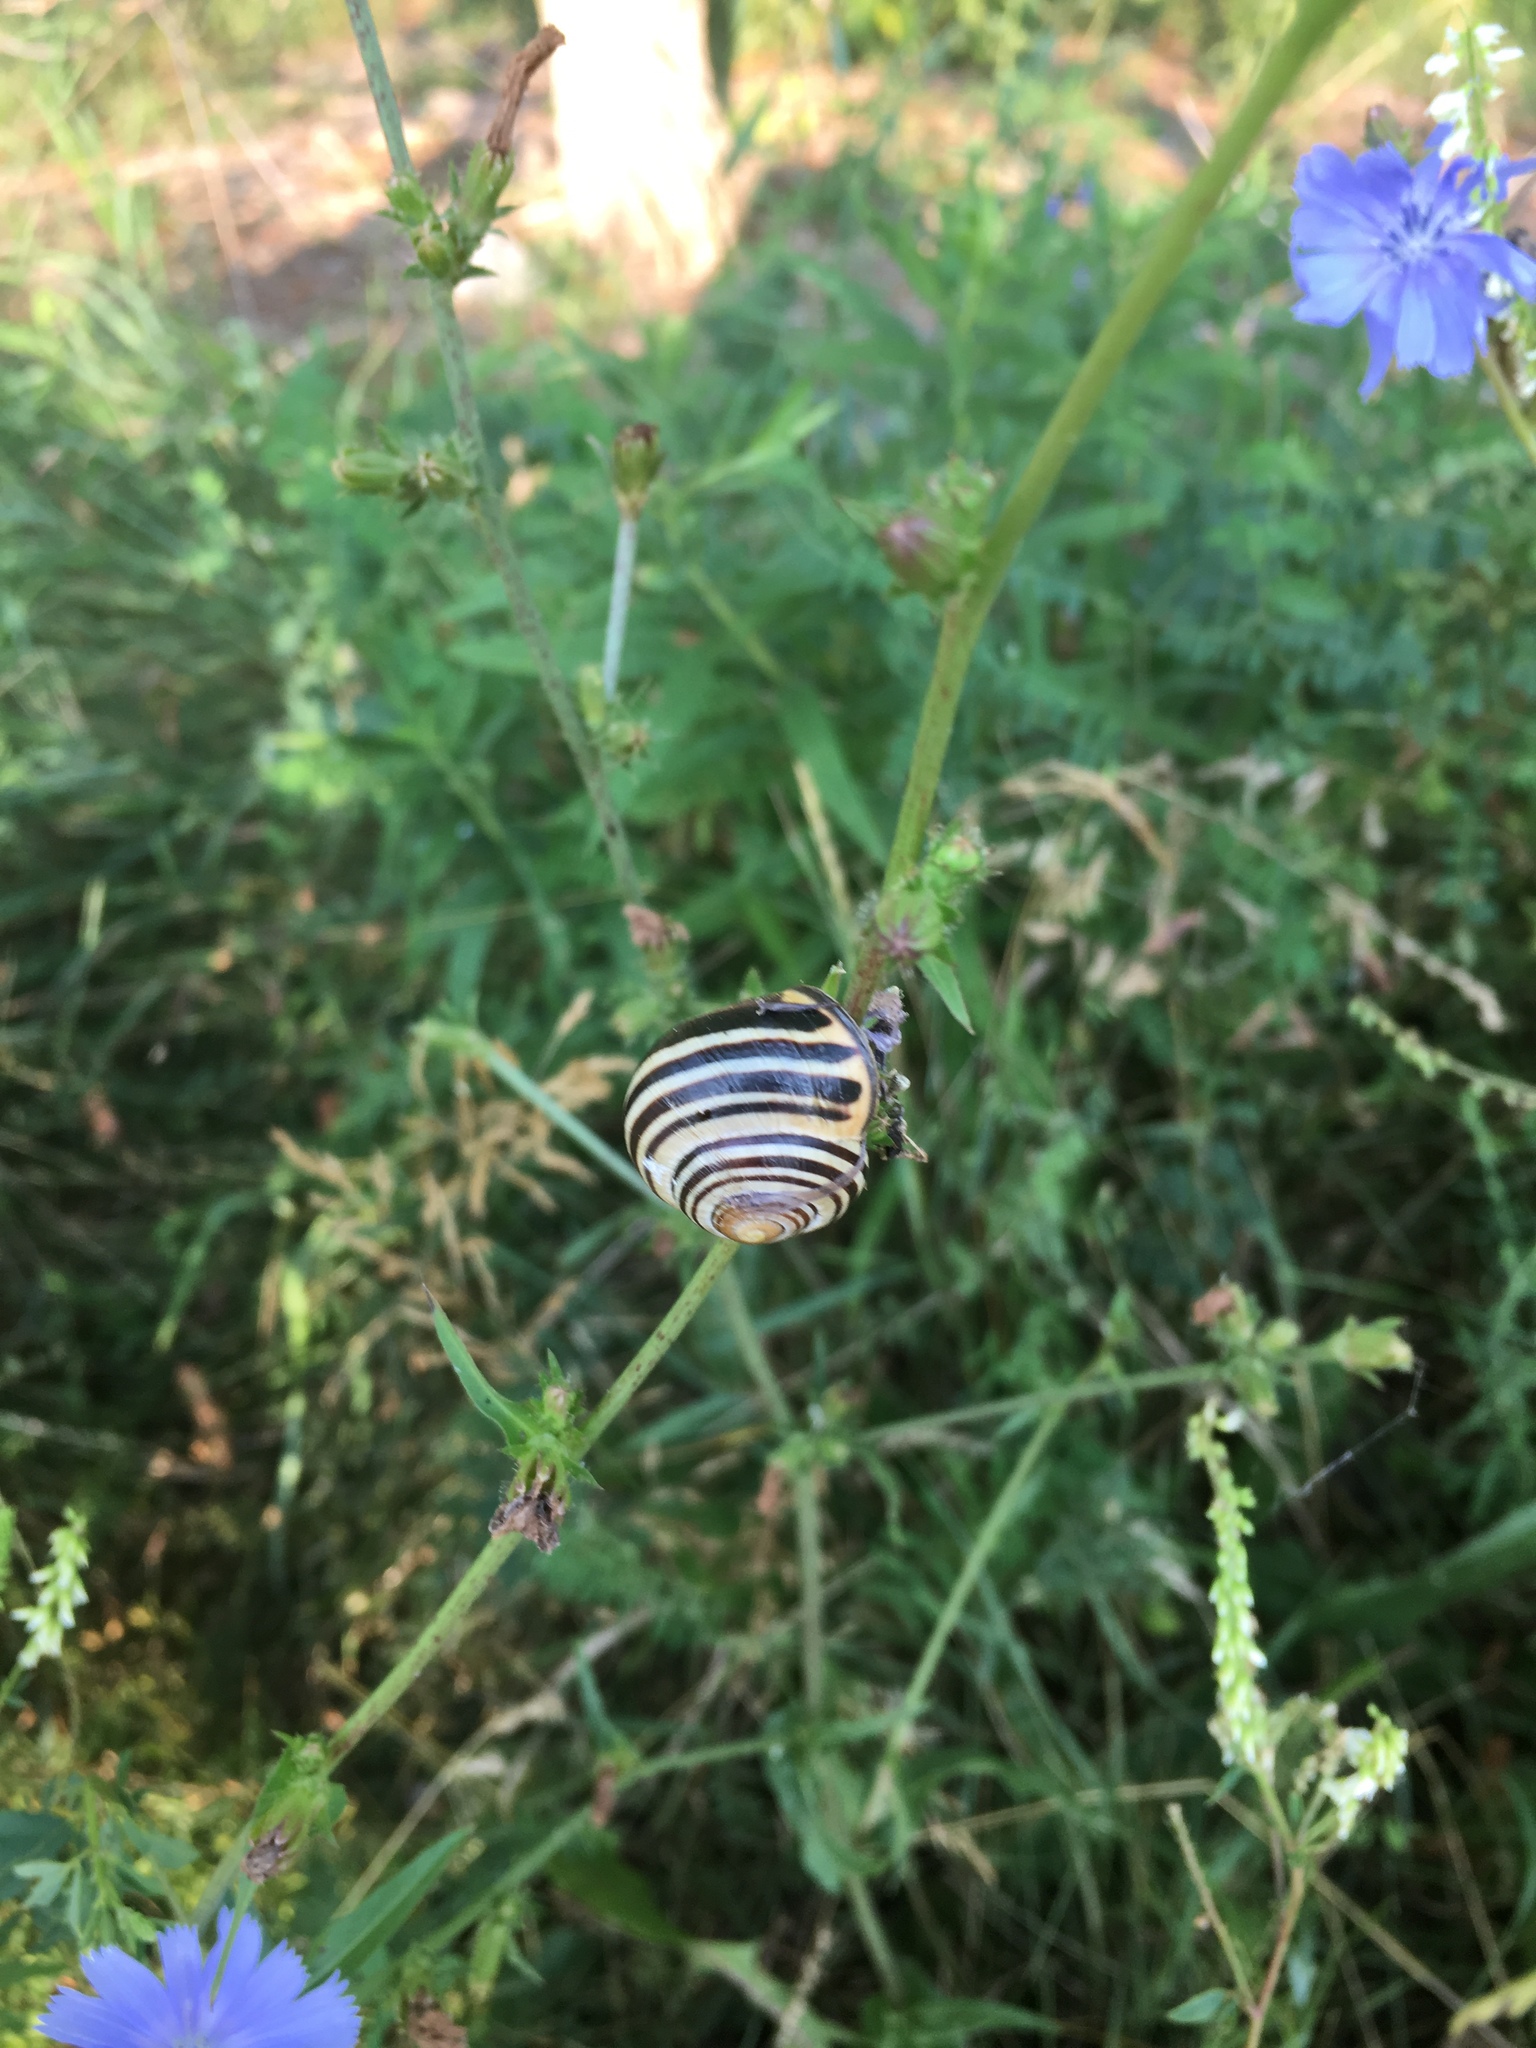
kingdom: Animalia
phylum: Mollusca
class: Gastropoda
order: Stylommatophora
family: Helicidae
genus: Cepaea
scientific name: Cepaea nemoralis
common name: Grovesnail
